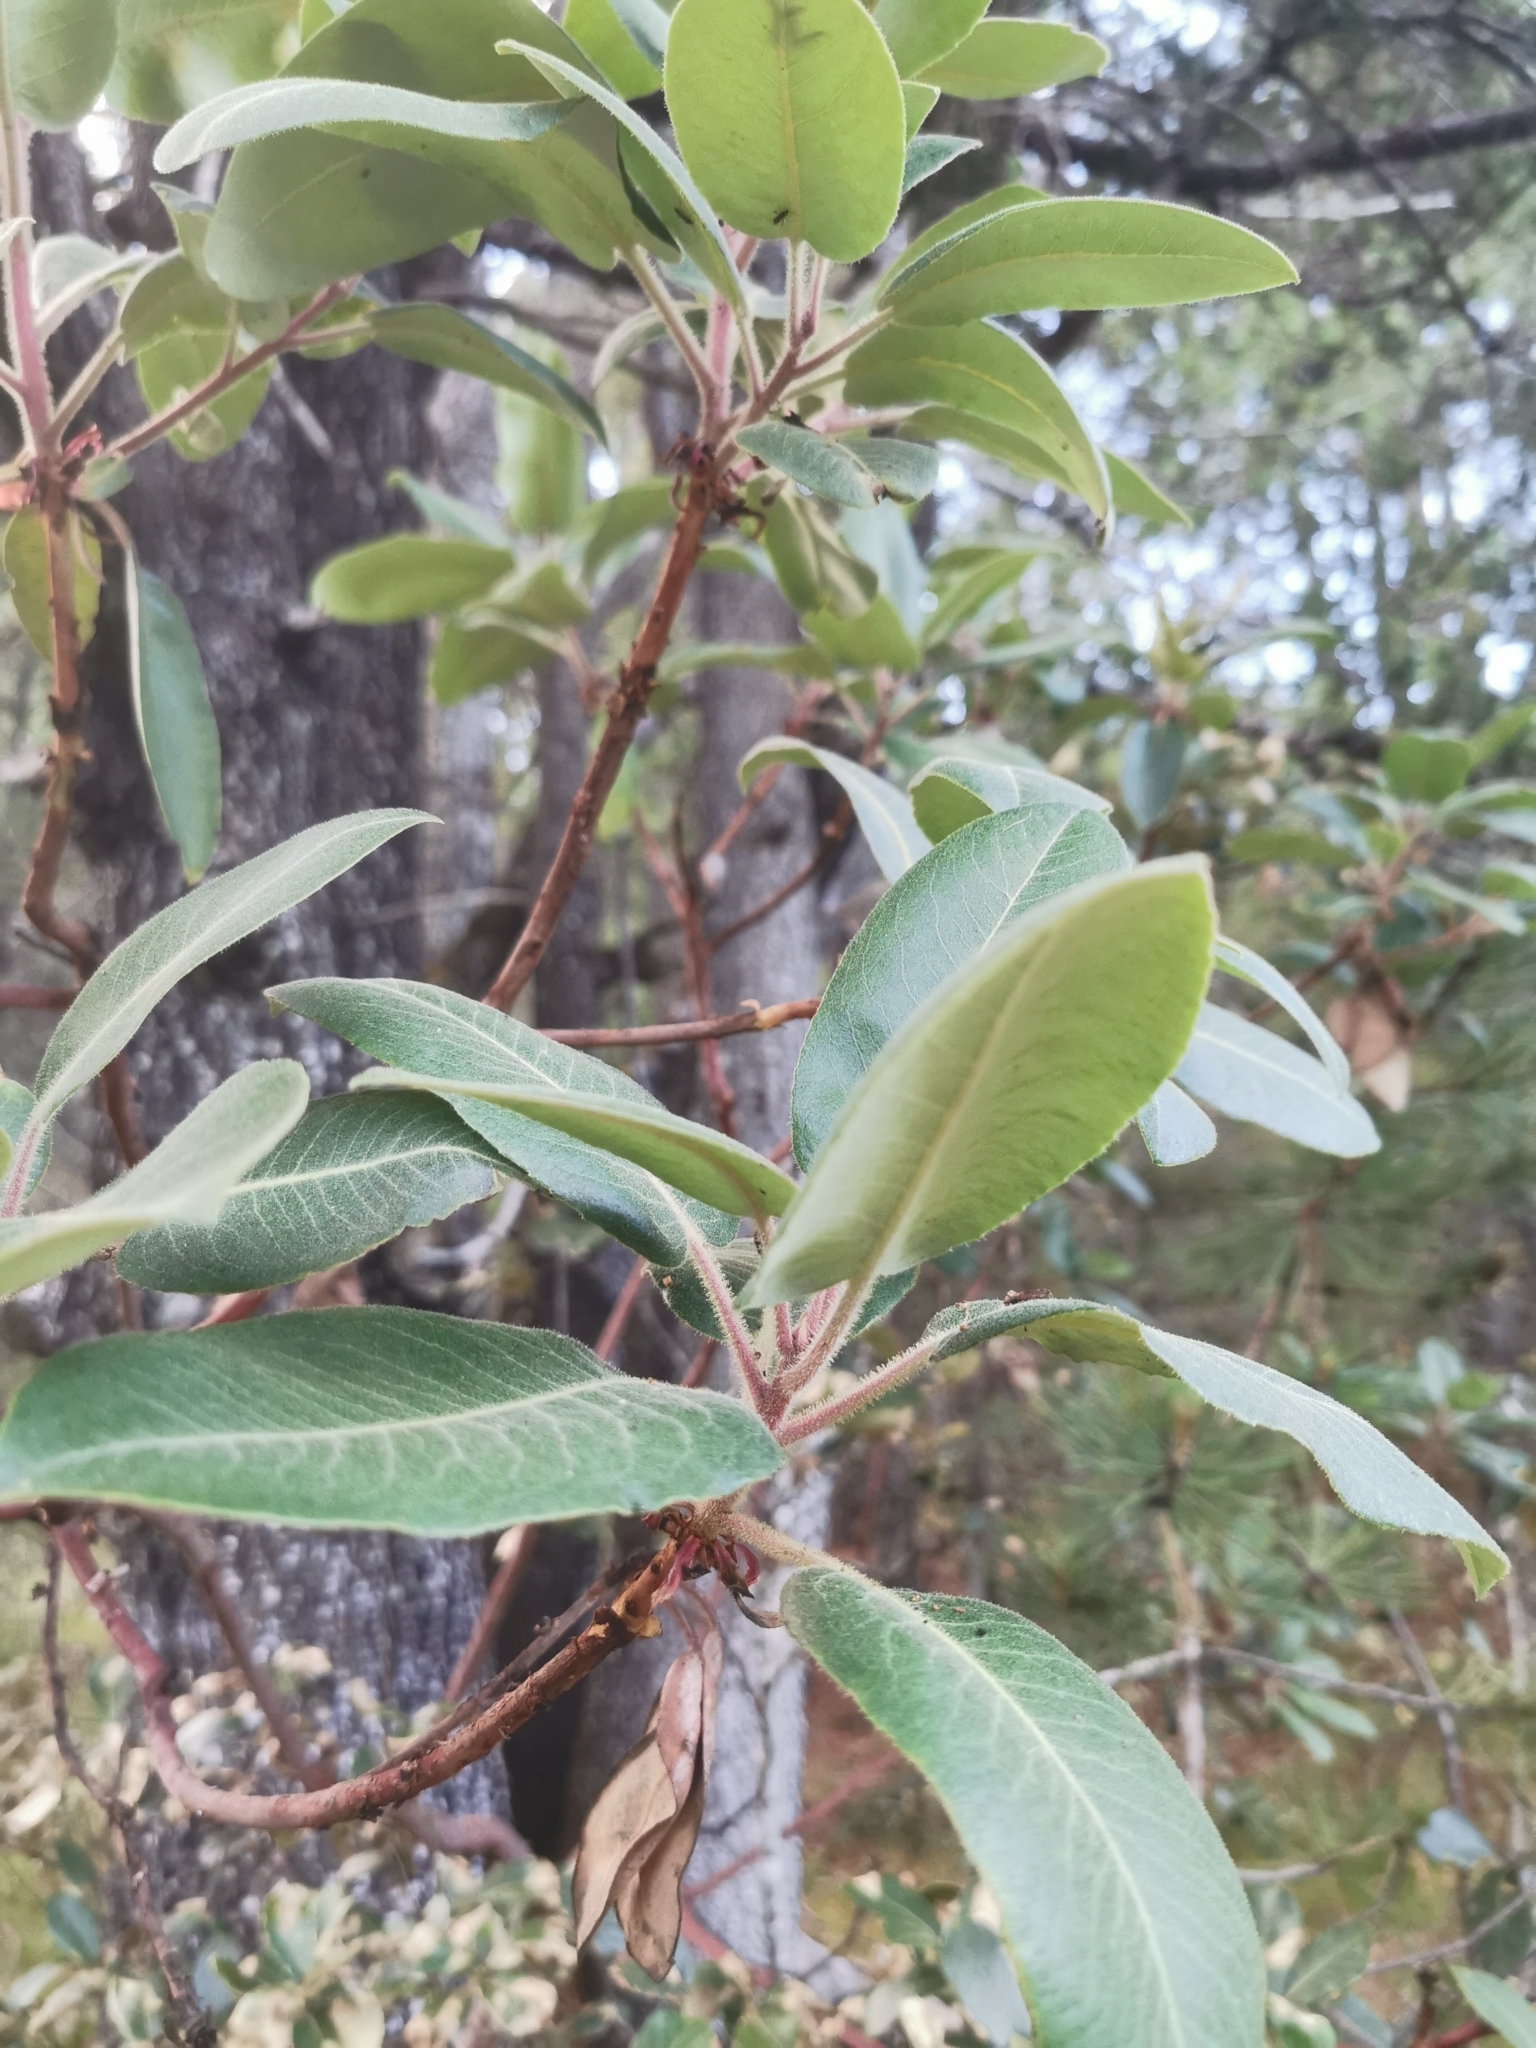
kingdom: Plantae
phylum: Tracheophyta
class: Magnoliopsida
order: Ericales
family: Ericaceae
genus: Arbutus
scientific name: Arbutus bicolor
